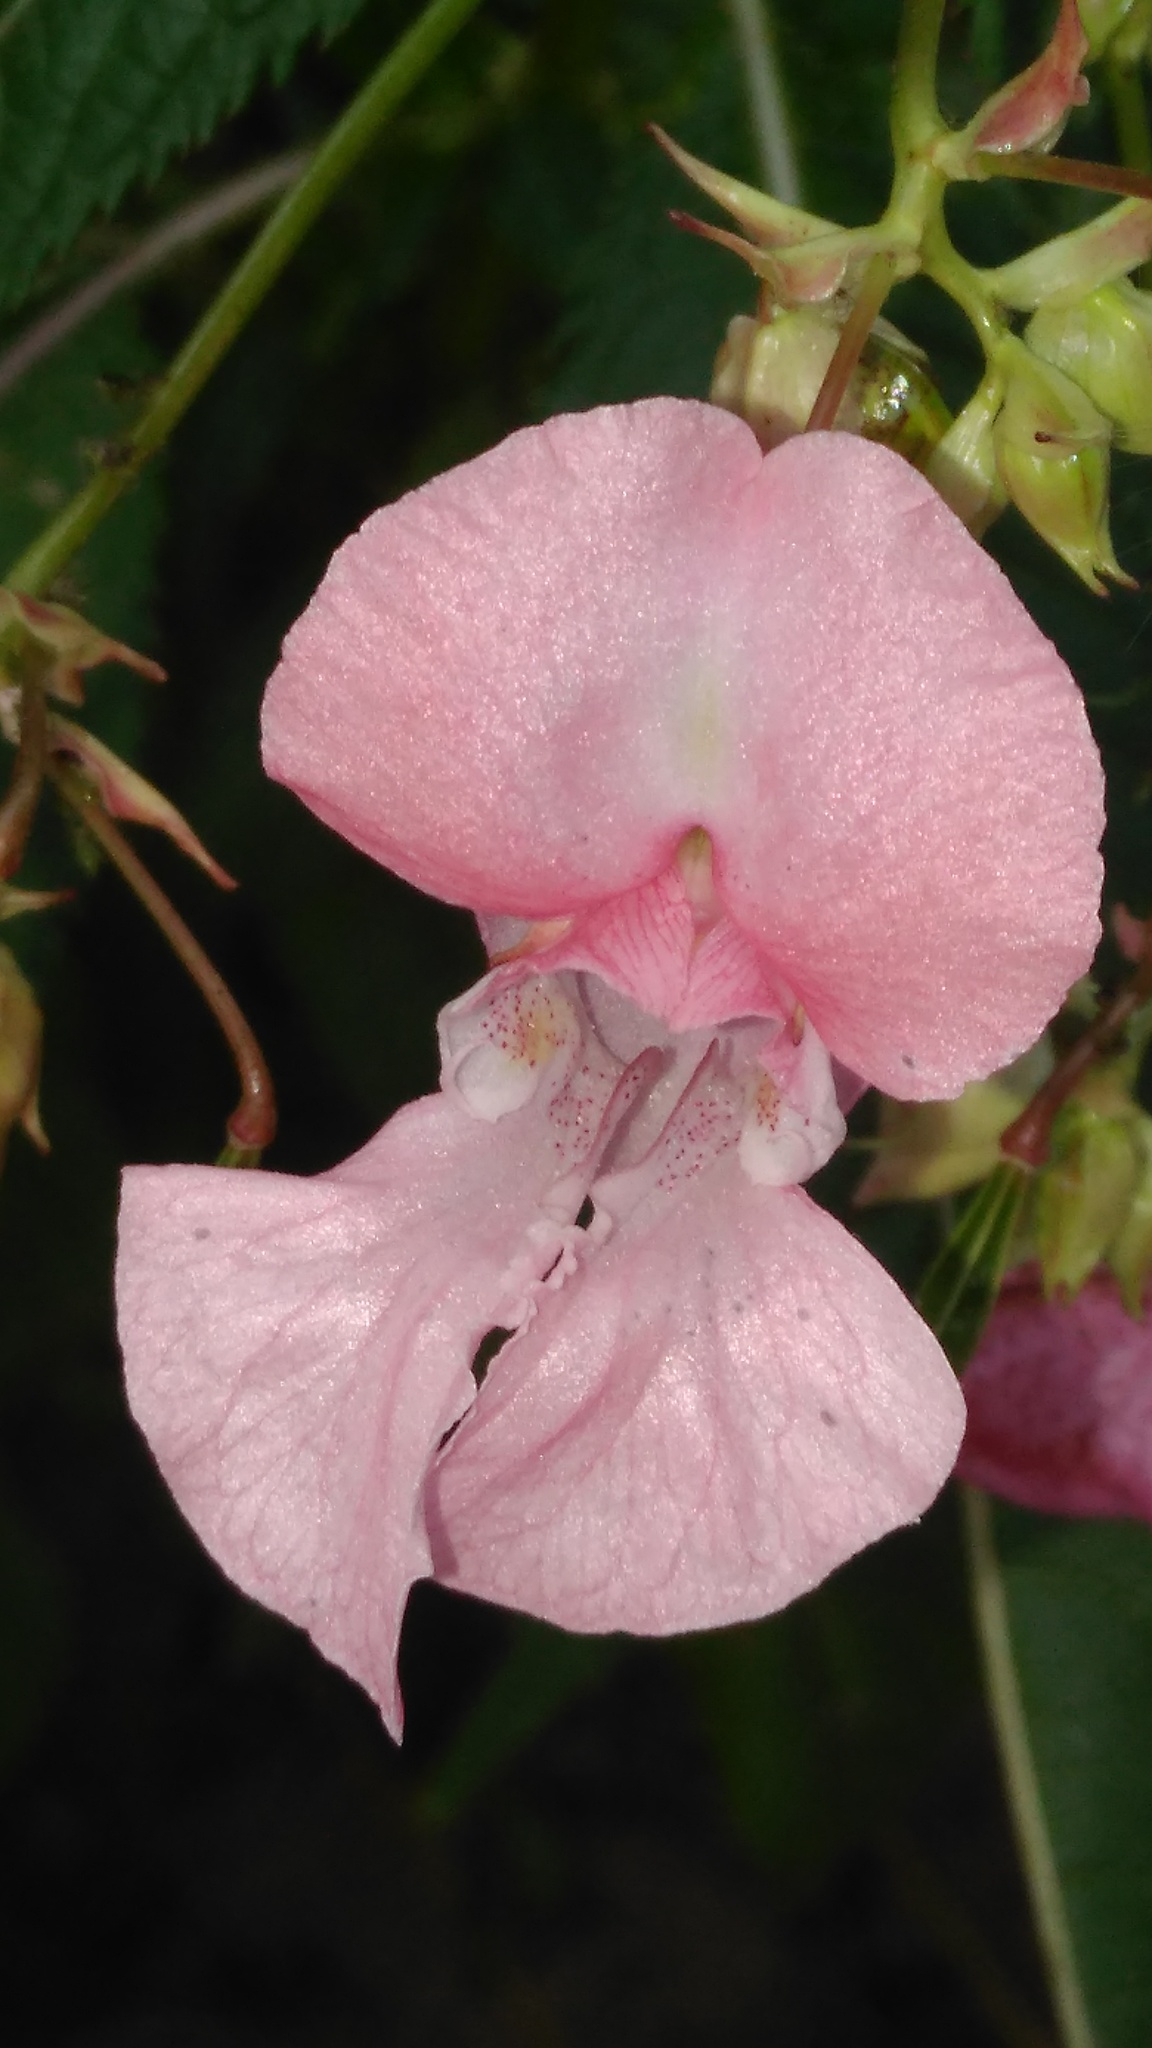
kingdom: Plantae
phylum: Tracheophyta
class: Magnoliopsida
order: Ericales
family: Balsaminaceae
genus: Impatiens
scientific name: Impatiens glandulifera
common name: Himalayan balsam
